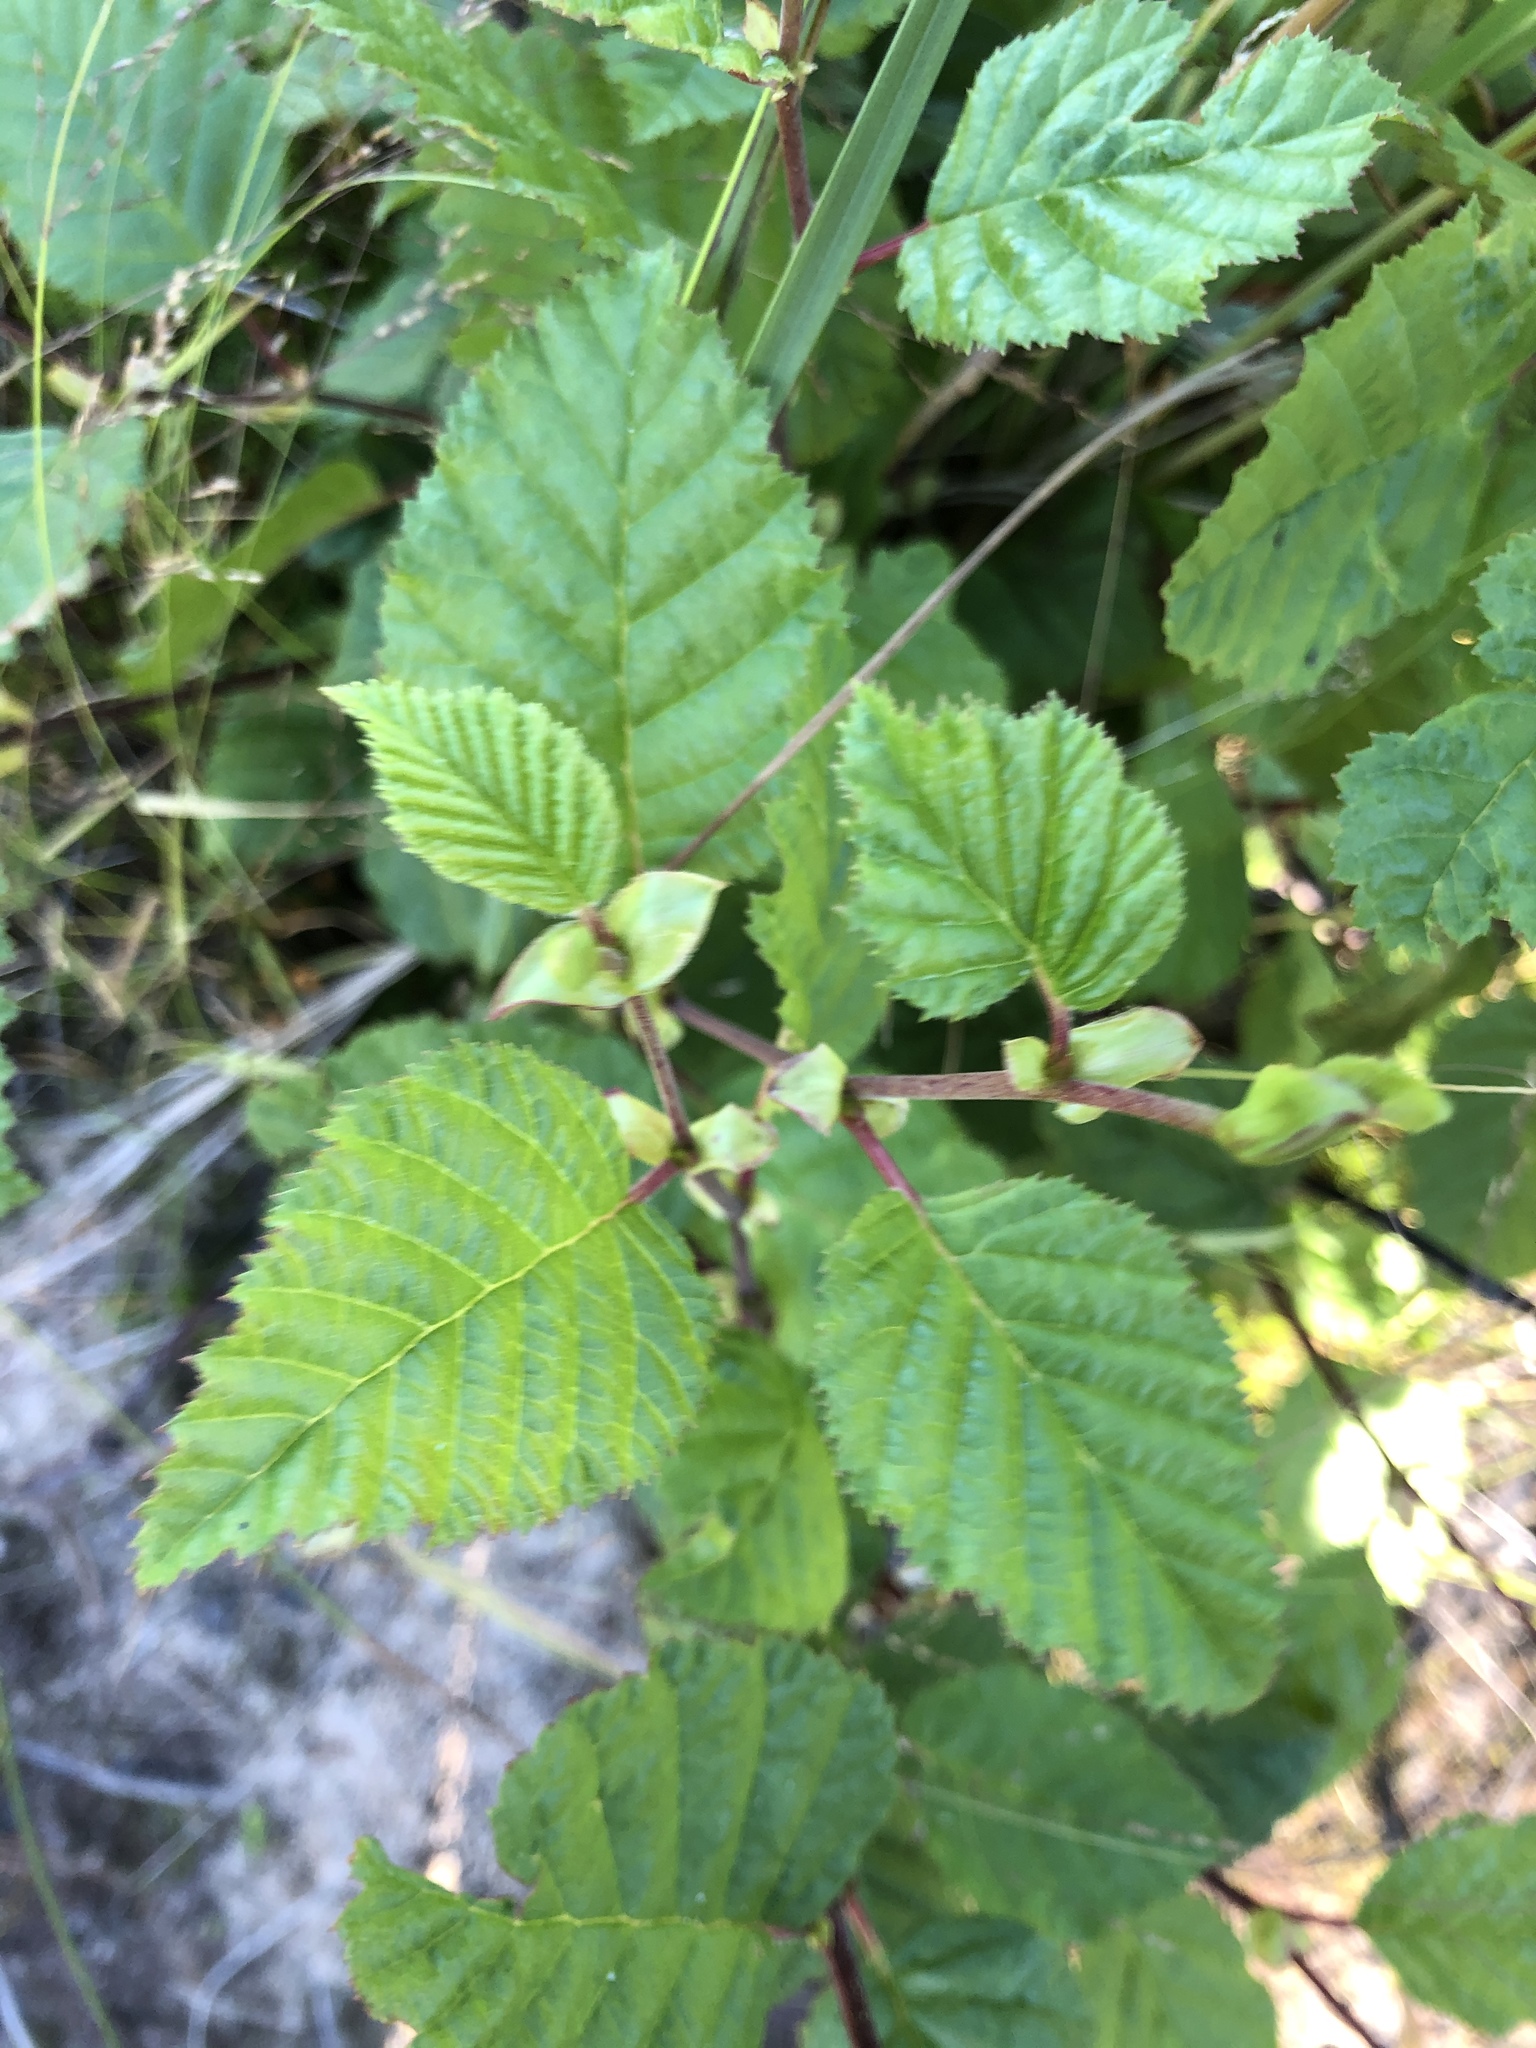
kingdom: Plantae
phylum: Tracheophyta
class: Magnoliopsida
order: Fagales
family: Betulaceae
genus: Alnus
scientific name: Alnus alnobetula
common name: Green alder
